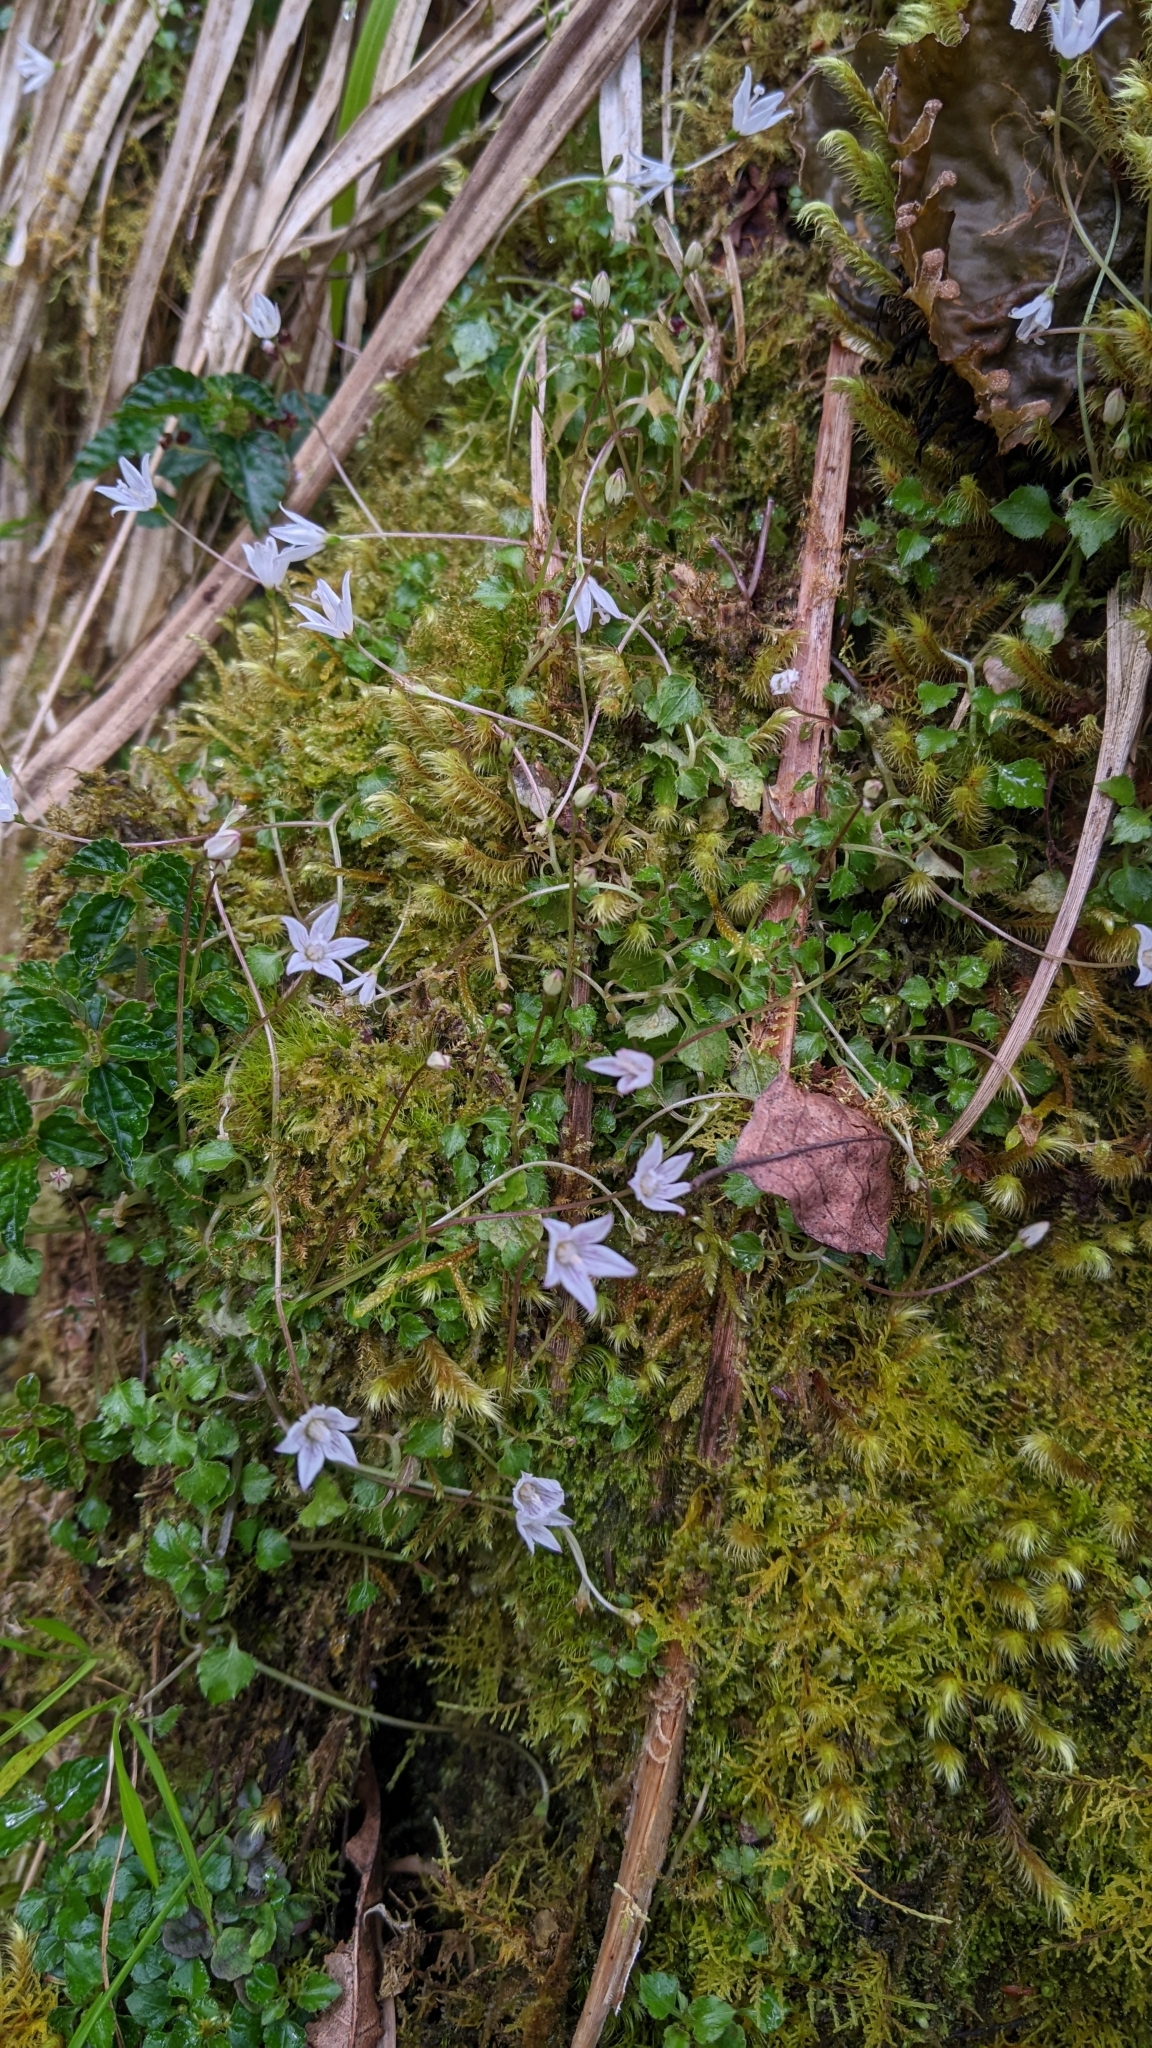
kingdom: Plantae
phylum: Tracheophyta
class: Magnoliopsida
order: Asterales
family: Campanulaceae
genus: Peracarpa
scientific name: Peracarpa carnosa
